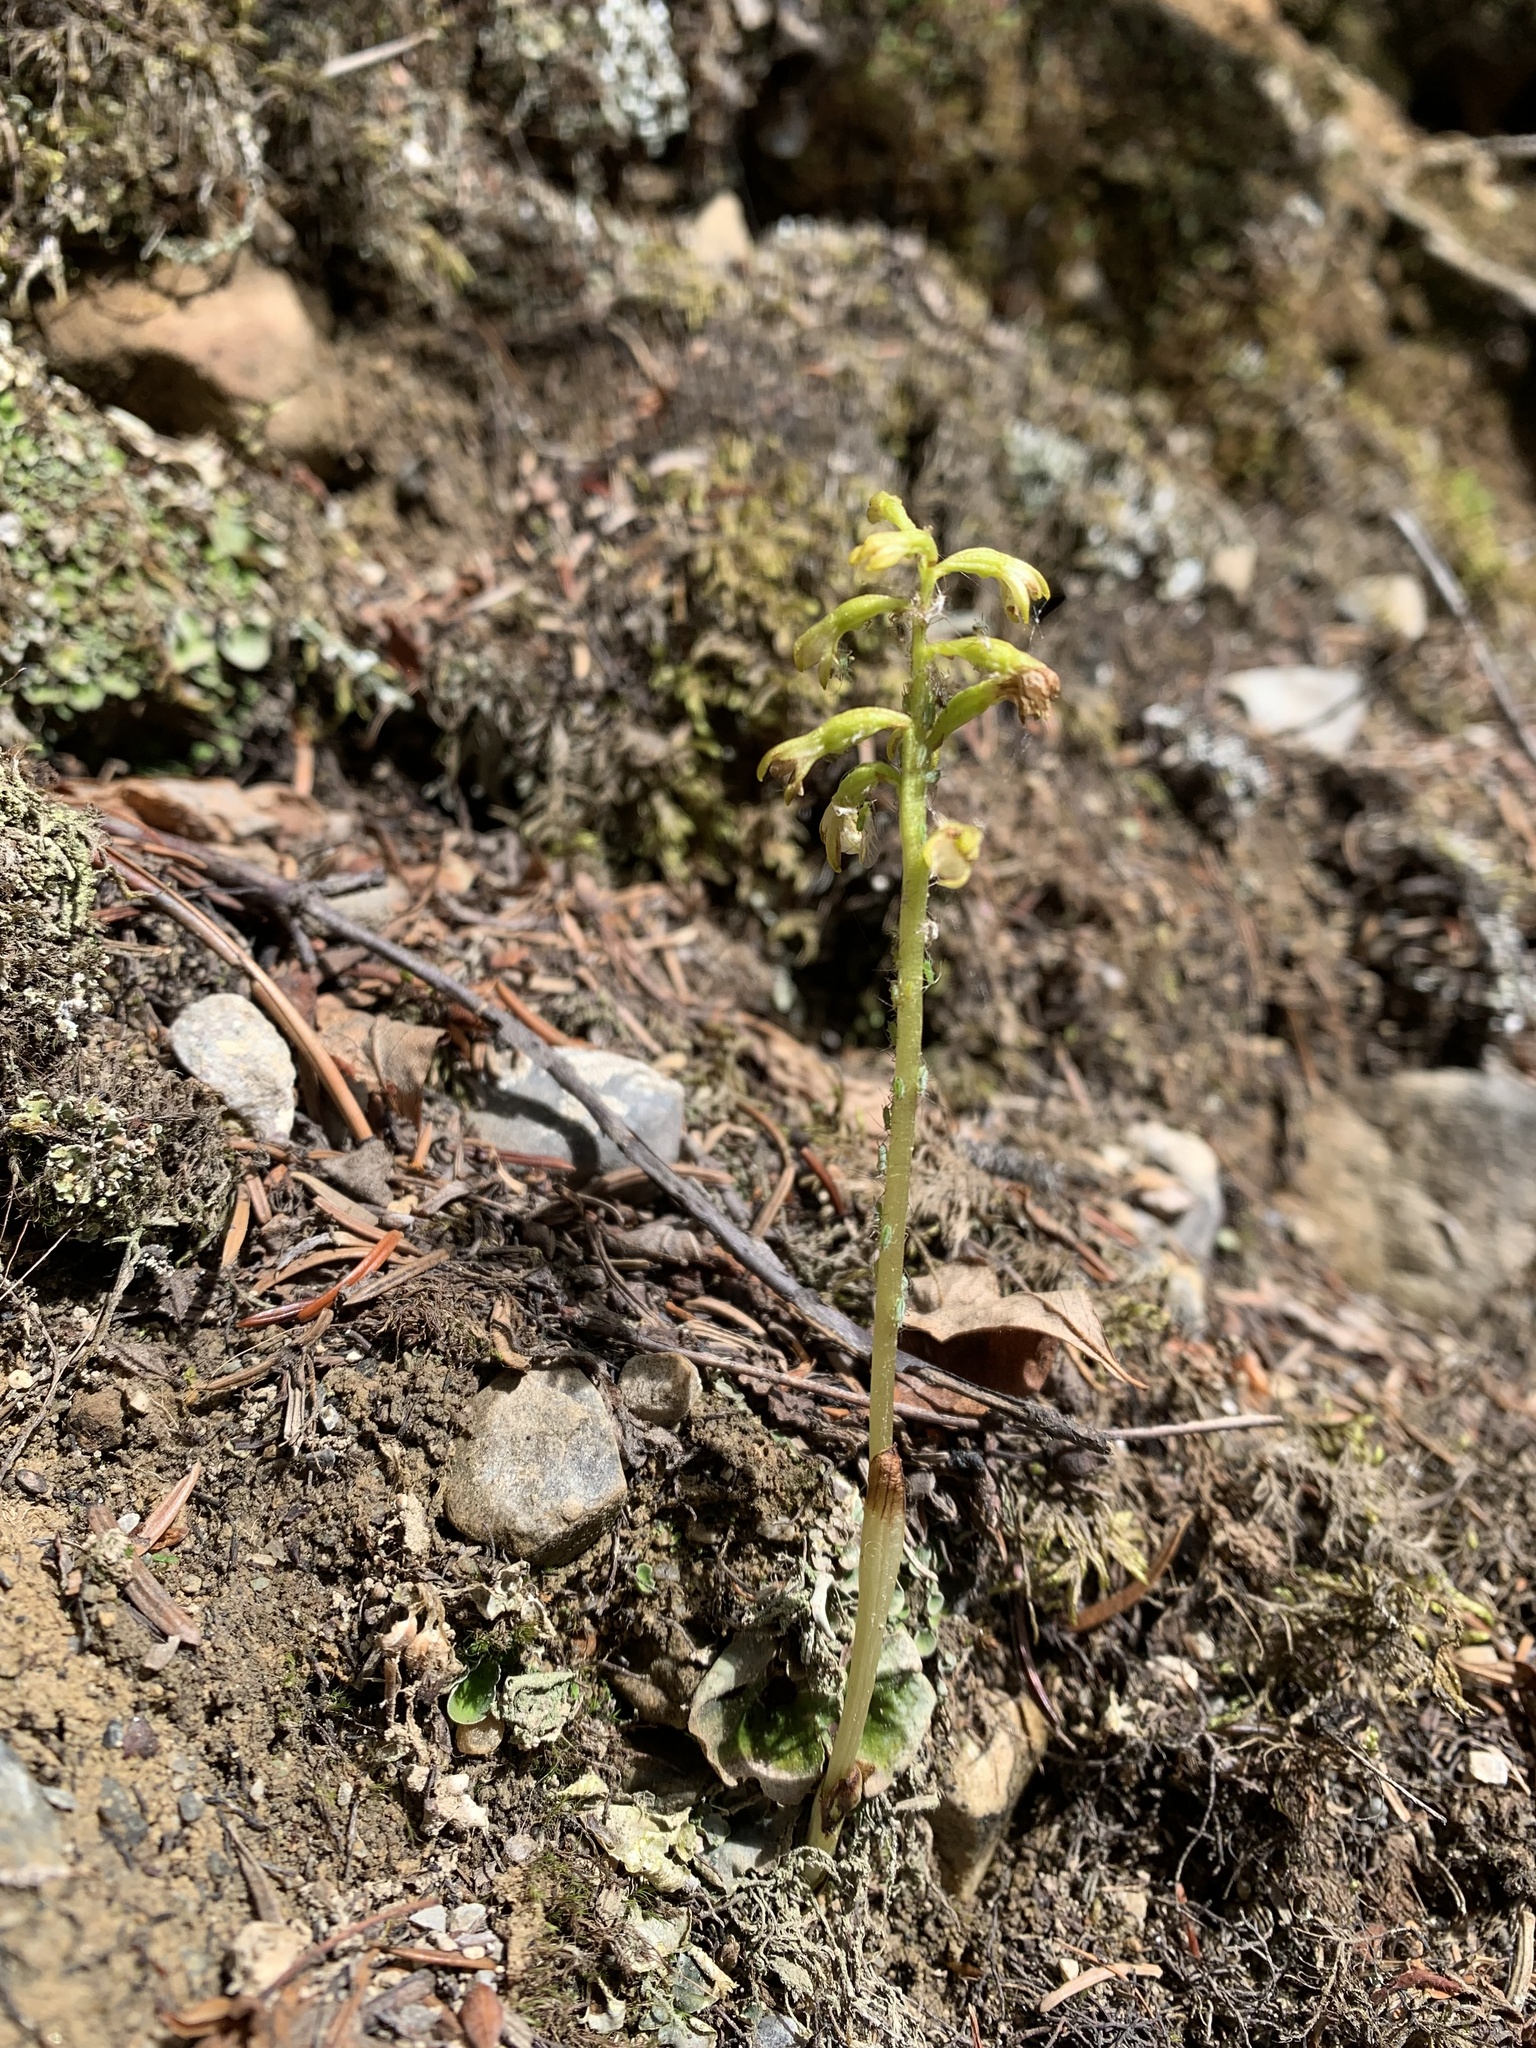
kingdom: Plantae
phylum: Tracheophyta
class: Liliopsida
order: Asparagales
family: Orchidaceae
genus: Corallorhiza
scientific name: Corallorhiza trifida
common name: Yellow coralroot
